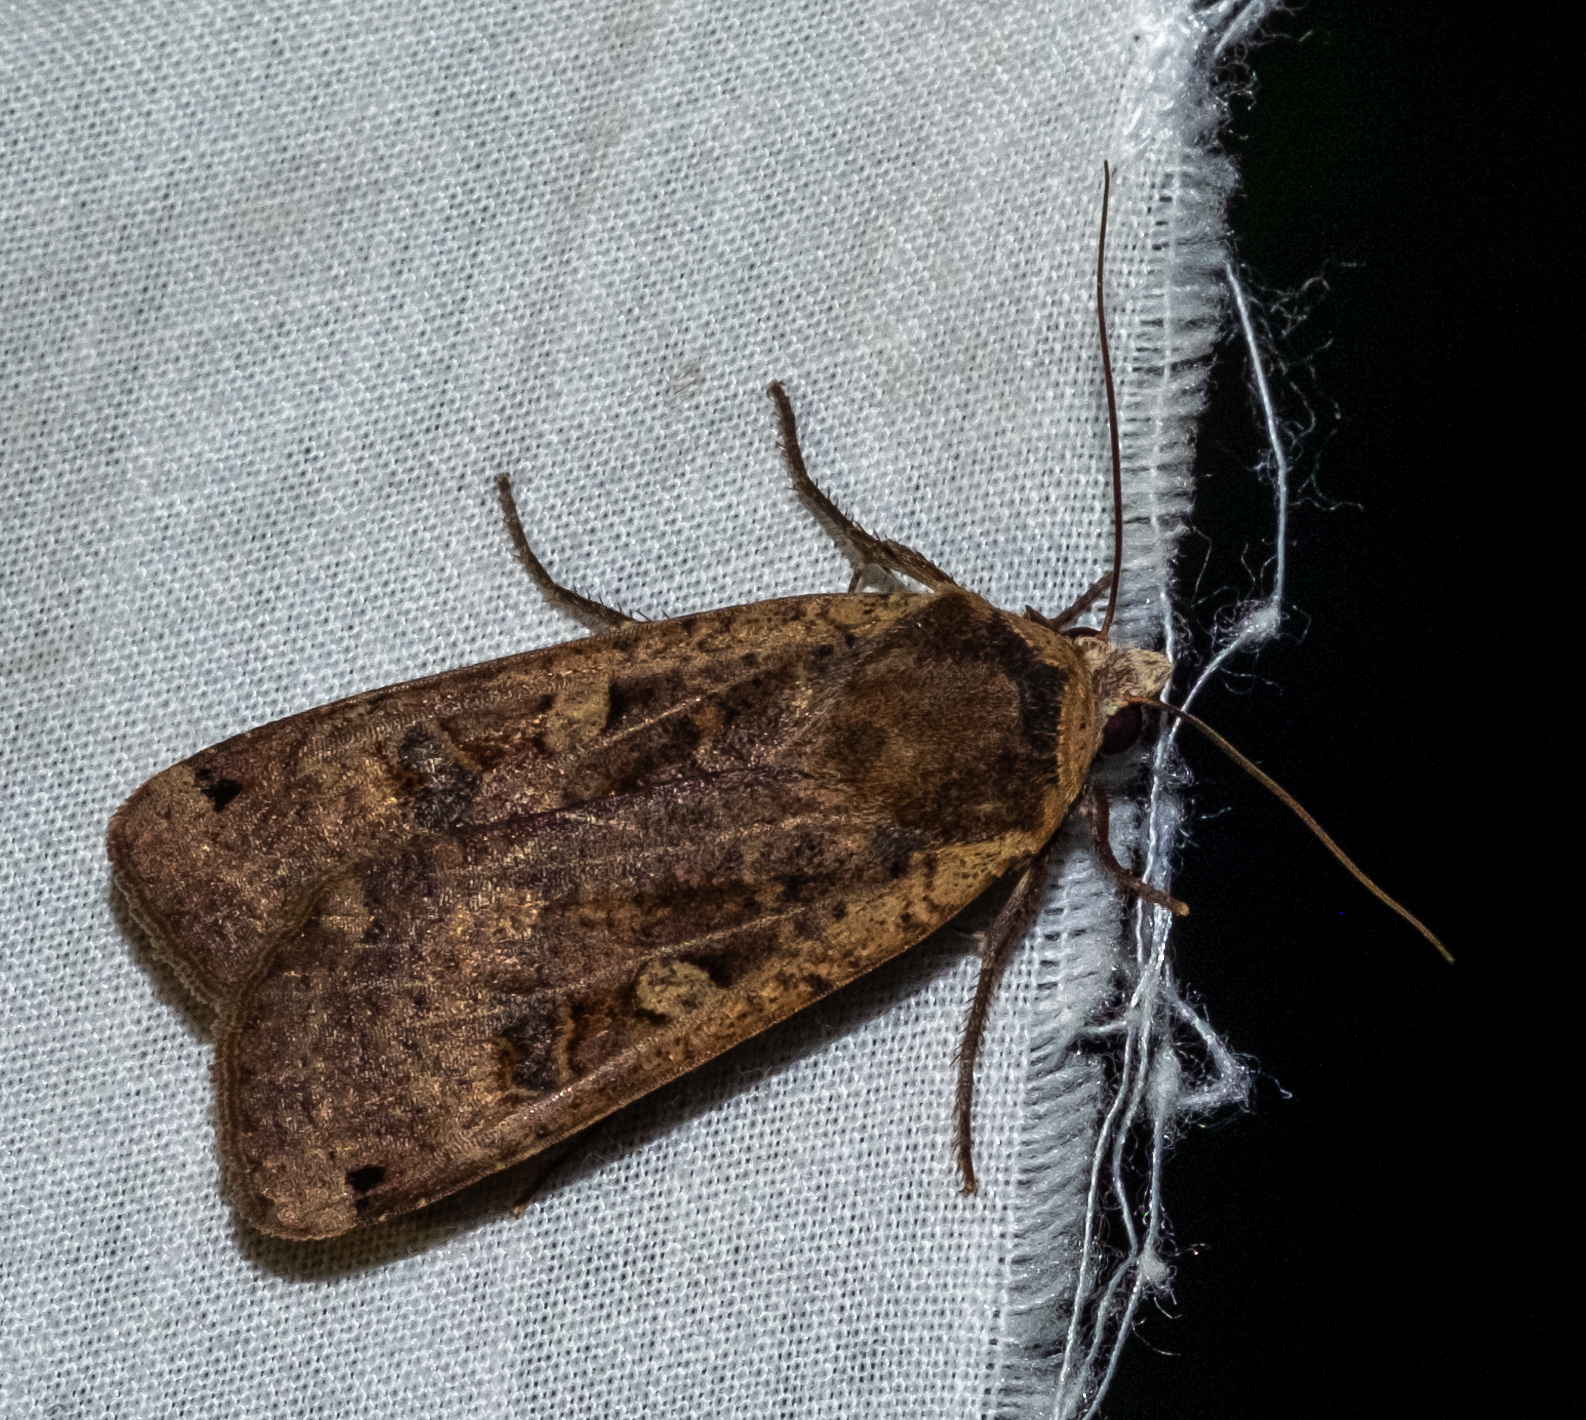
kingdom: Animalia
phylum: Arthropoda
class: Insecta
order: Lepidoptera
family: Noctuidae
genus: Noctua
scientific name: Noctua pronuba
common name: Large yellow underwing
